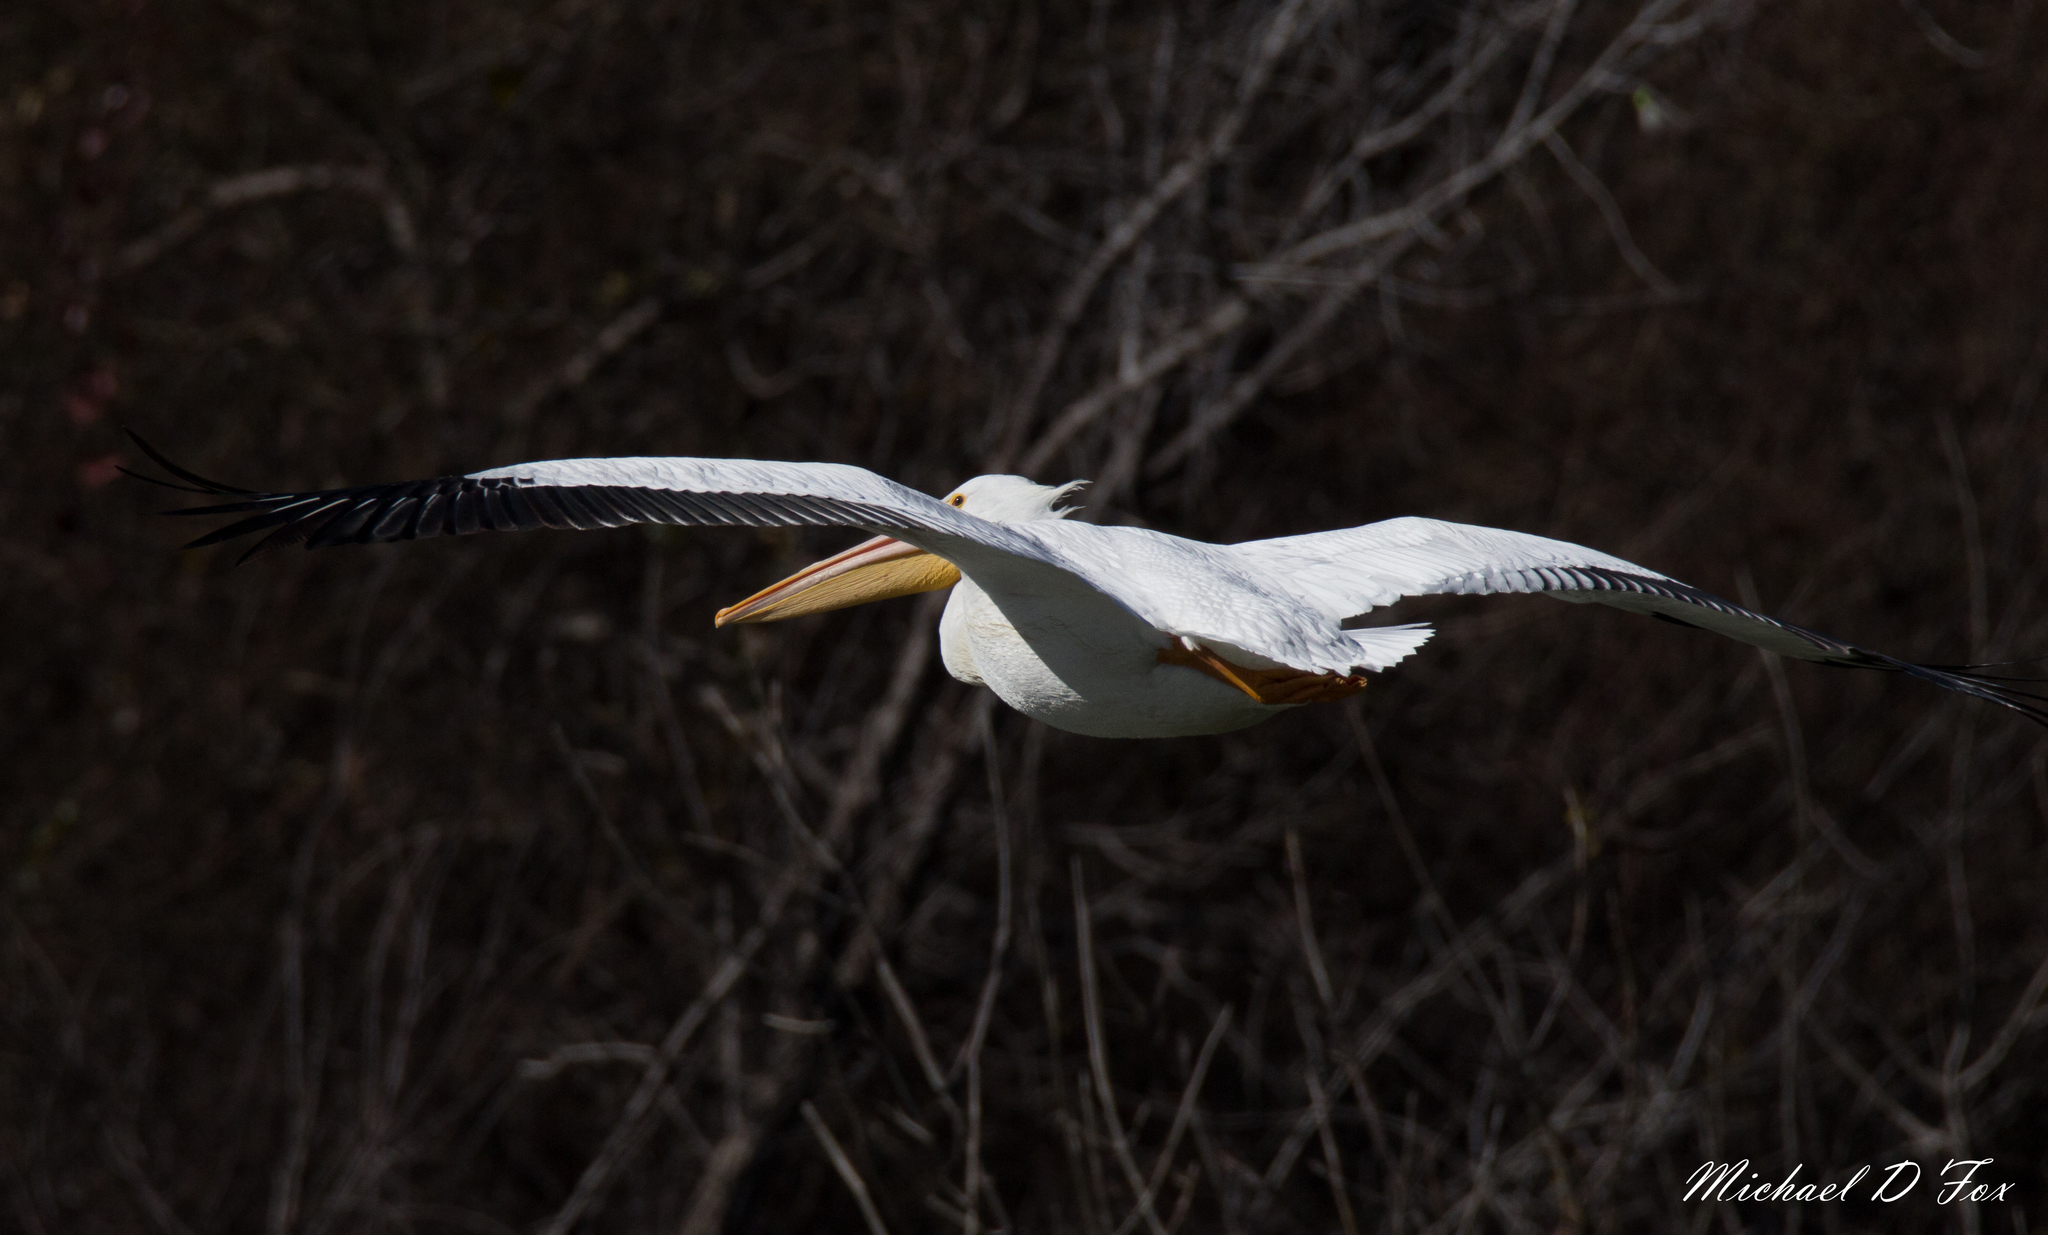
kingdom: Animalia
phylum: Chordata
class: Aves
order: Pelecaniformes
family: Pelecanidae
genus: Pelecanus
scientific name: Pelecanus erythrorhynchos
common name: American white pelican
